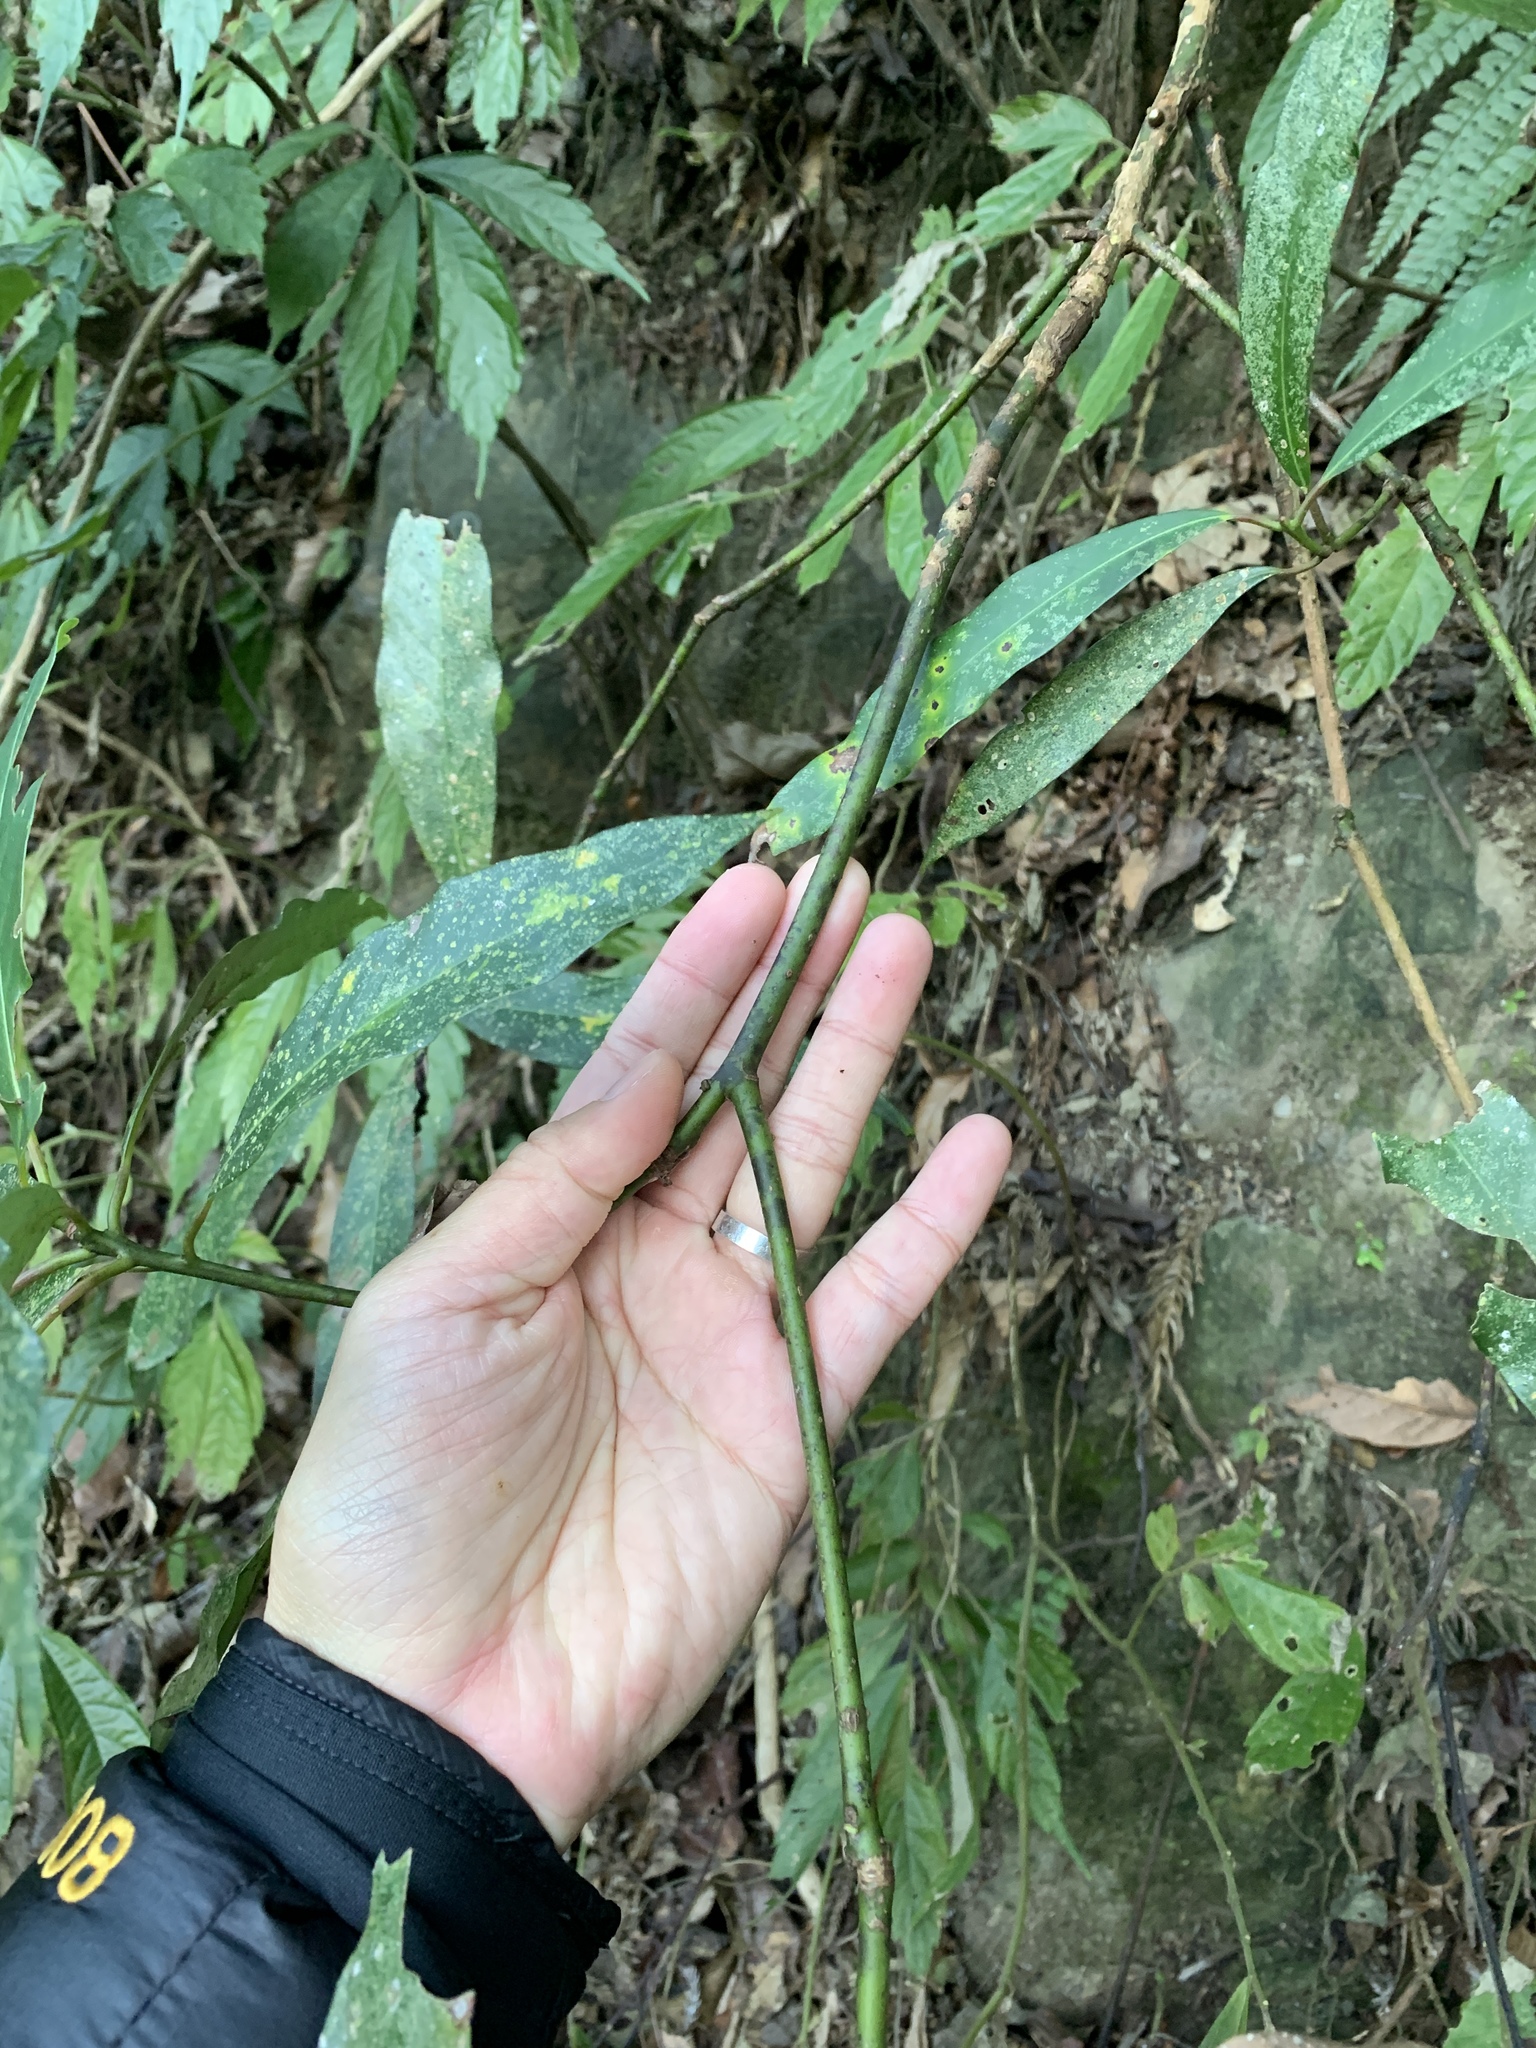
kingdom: Plantae
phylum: Tracheophyta
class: Magnoliopsida
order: Laurales
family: Lauraceae
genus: Machilus
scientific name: Machilus zuihoensis
